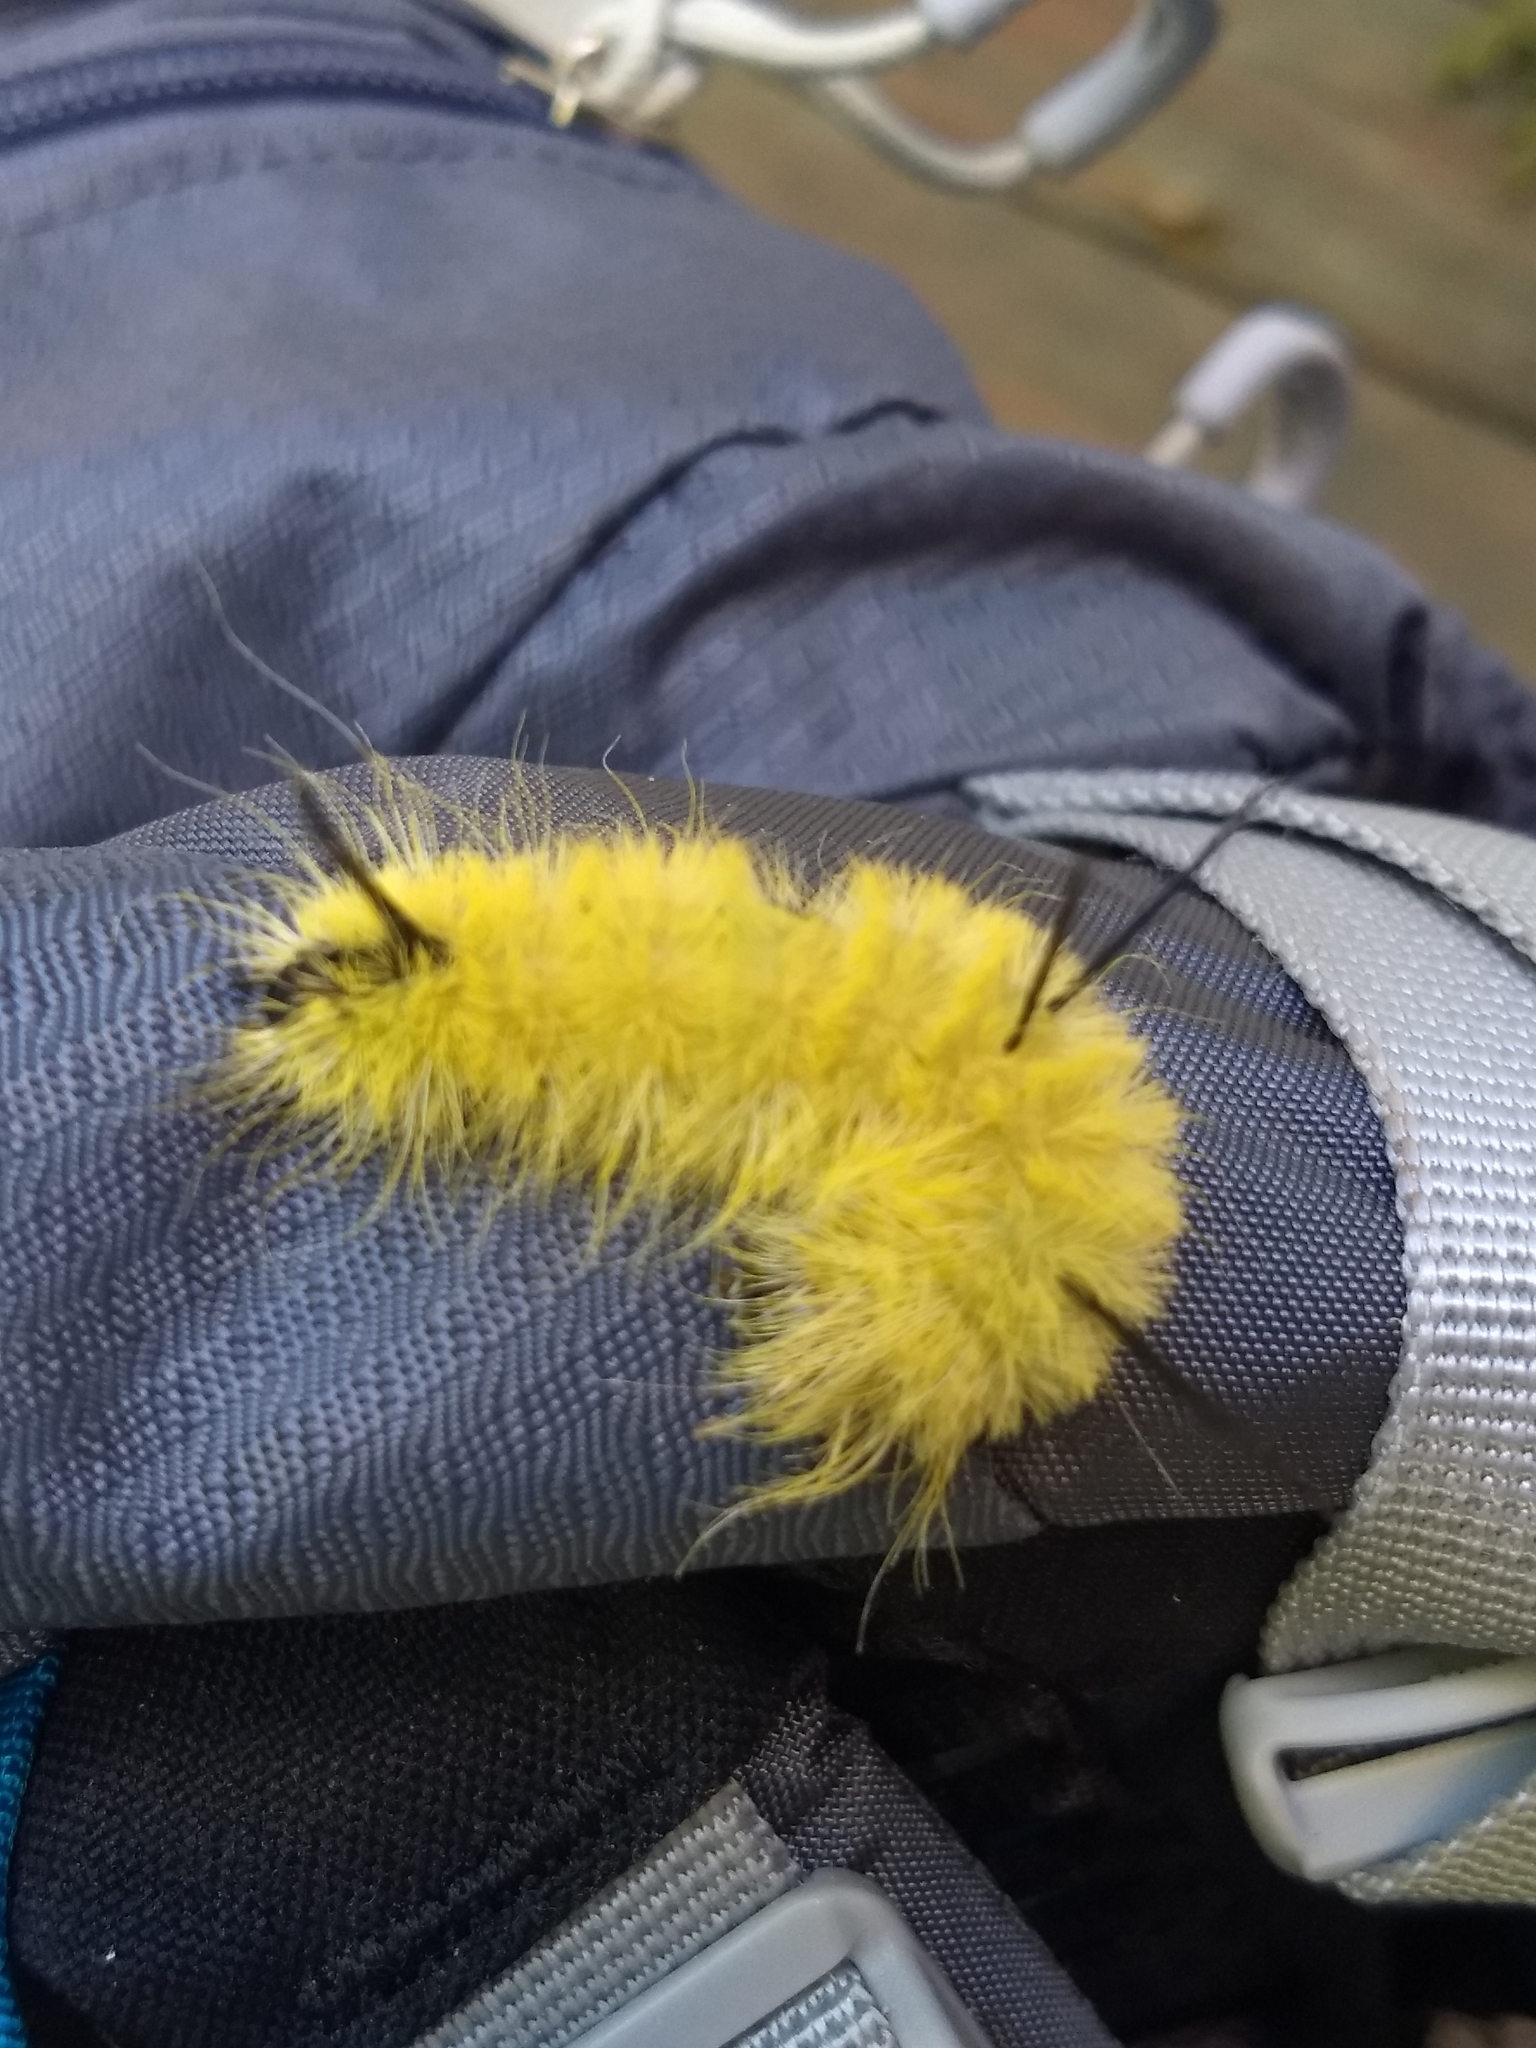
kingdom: Animalia
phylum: Arthropoda
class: Insecta
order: Lepidoptera
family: Noctuidae
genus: Acronicta
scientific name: Acronicta americana
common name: American dagger
